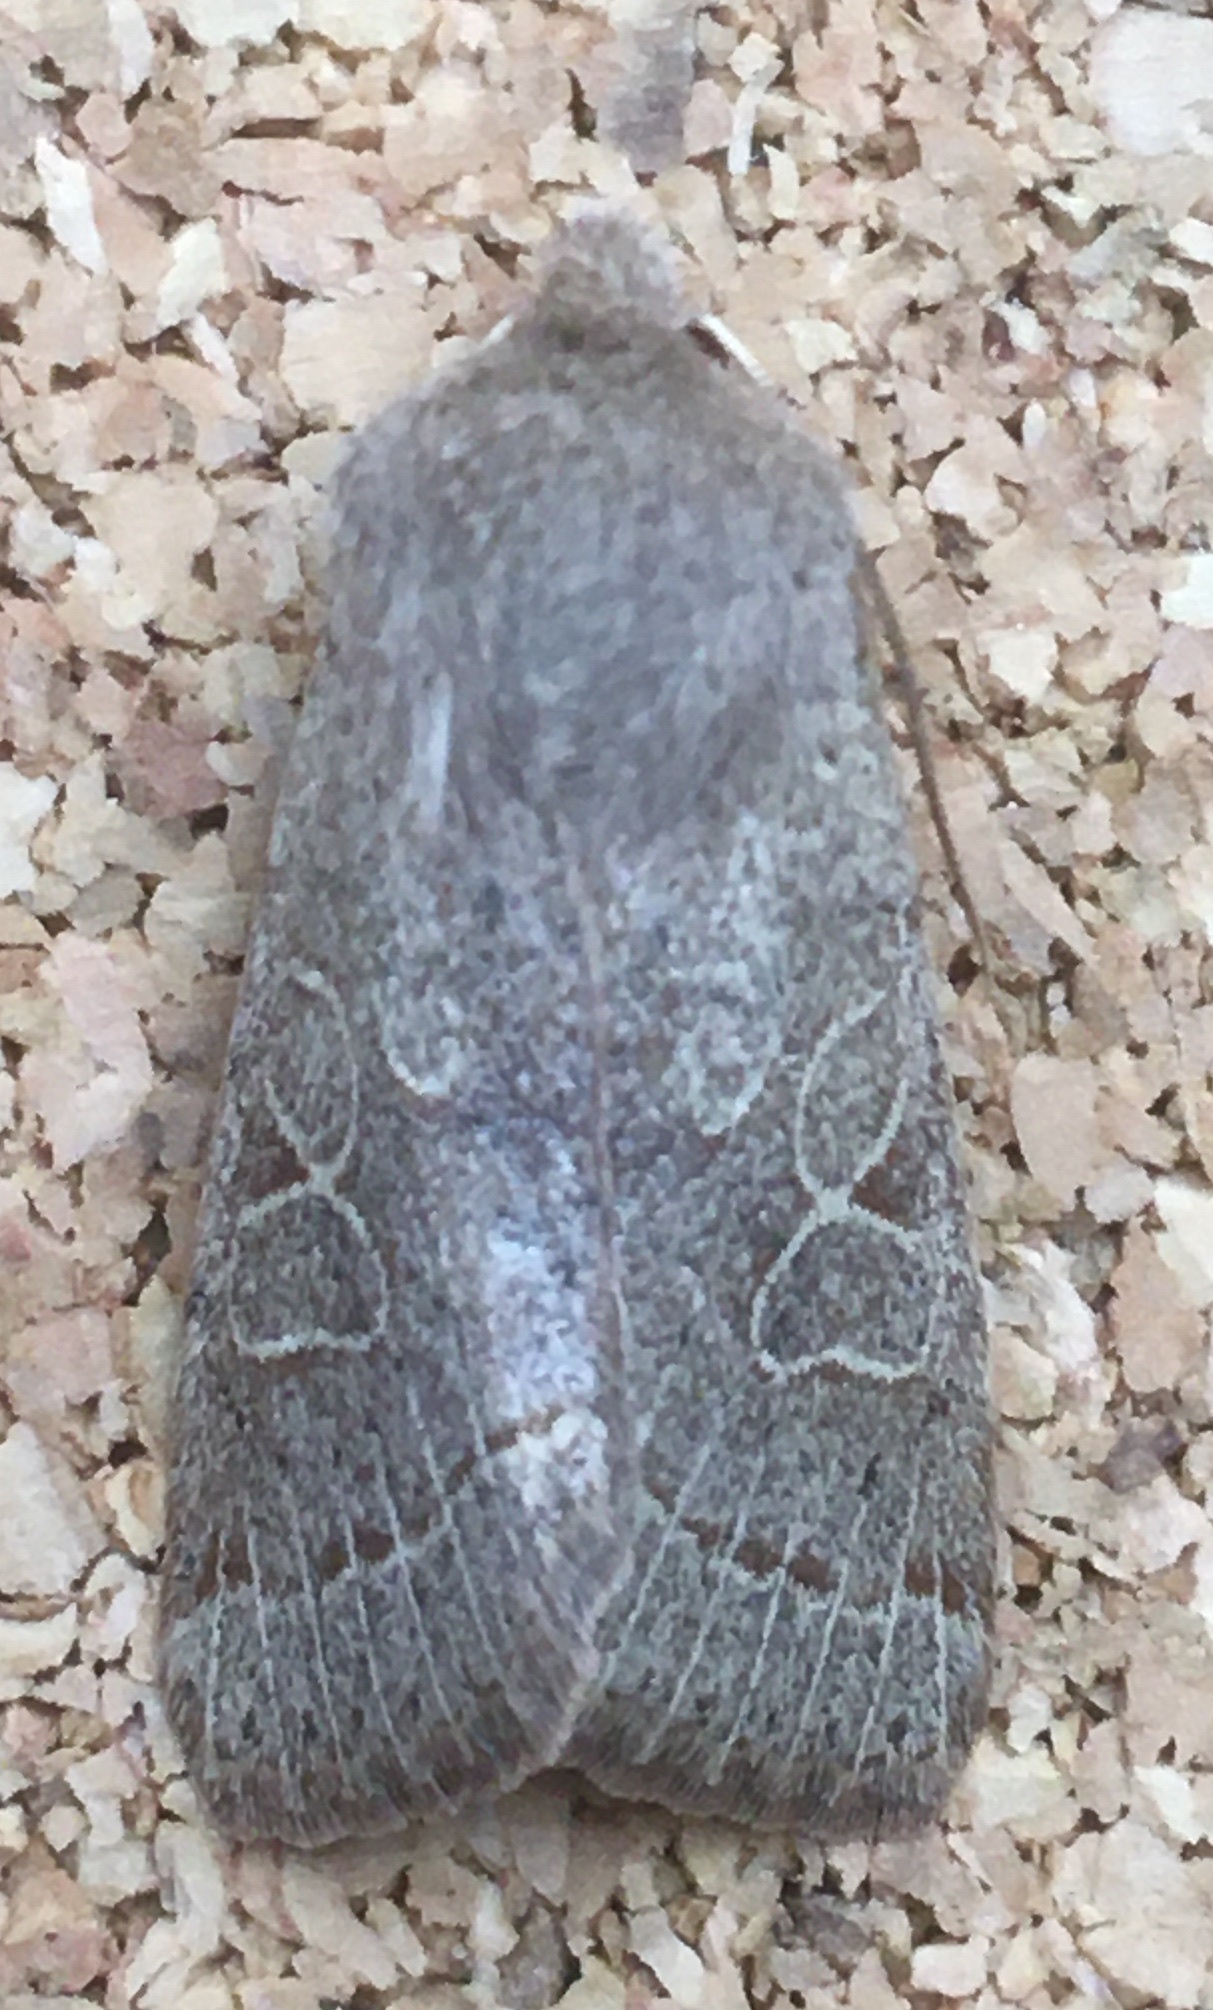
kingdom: Animalia
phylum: Arthropoda
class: Insecta
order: Lepidoptera
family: Noctuidae
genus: Orthosia
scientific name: Orthosia cerasi
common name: Common quaker
